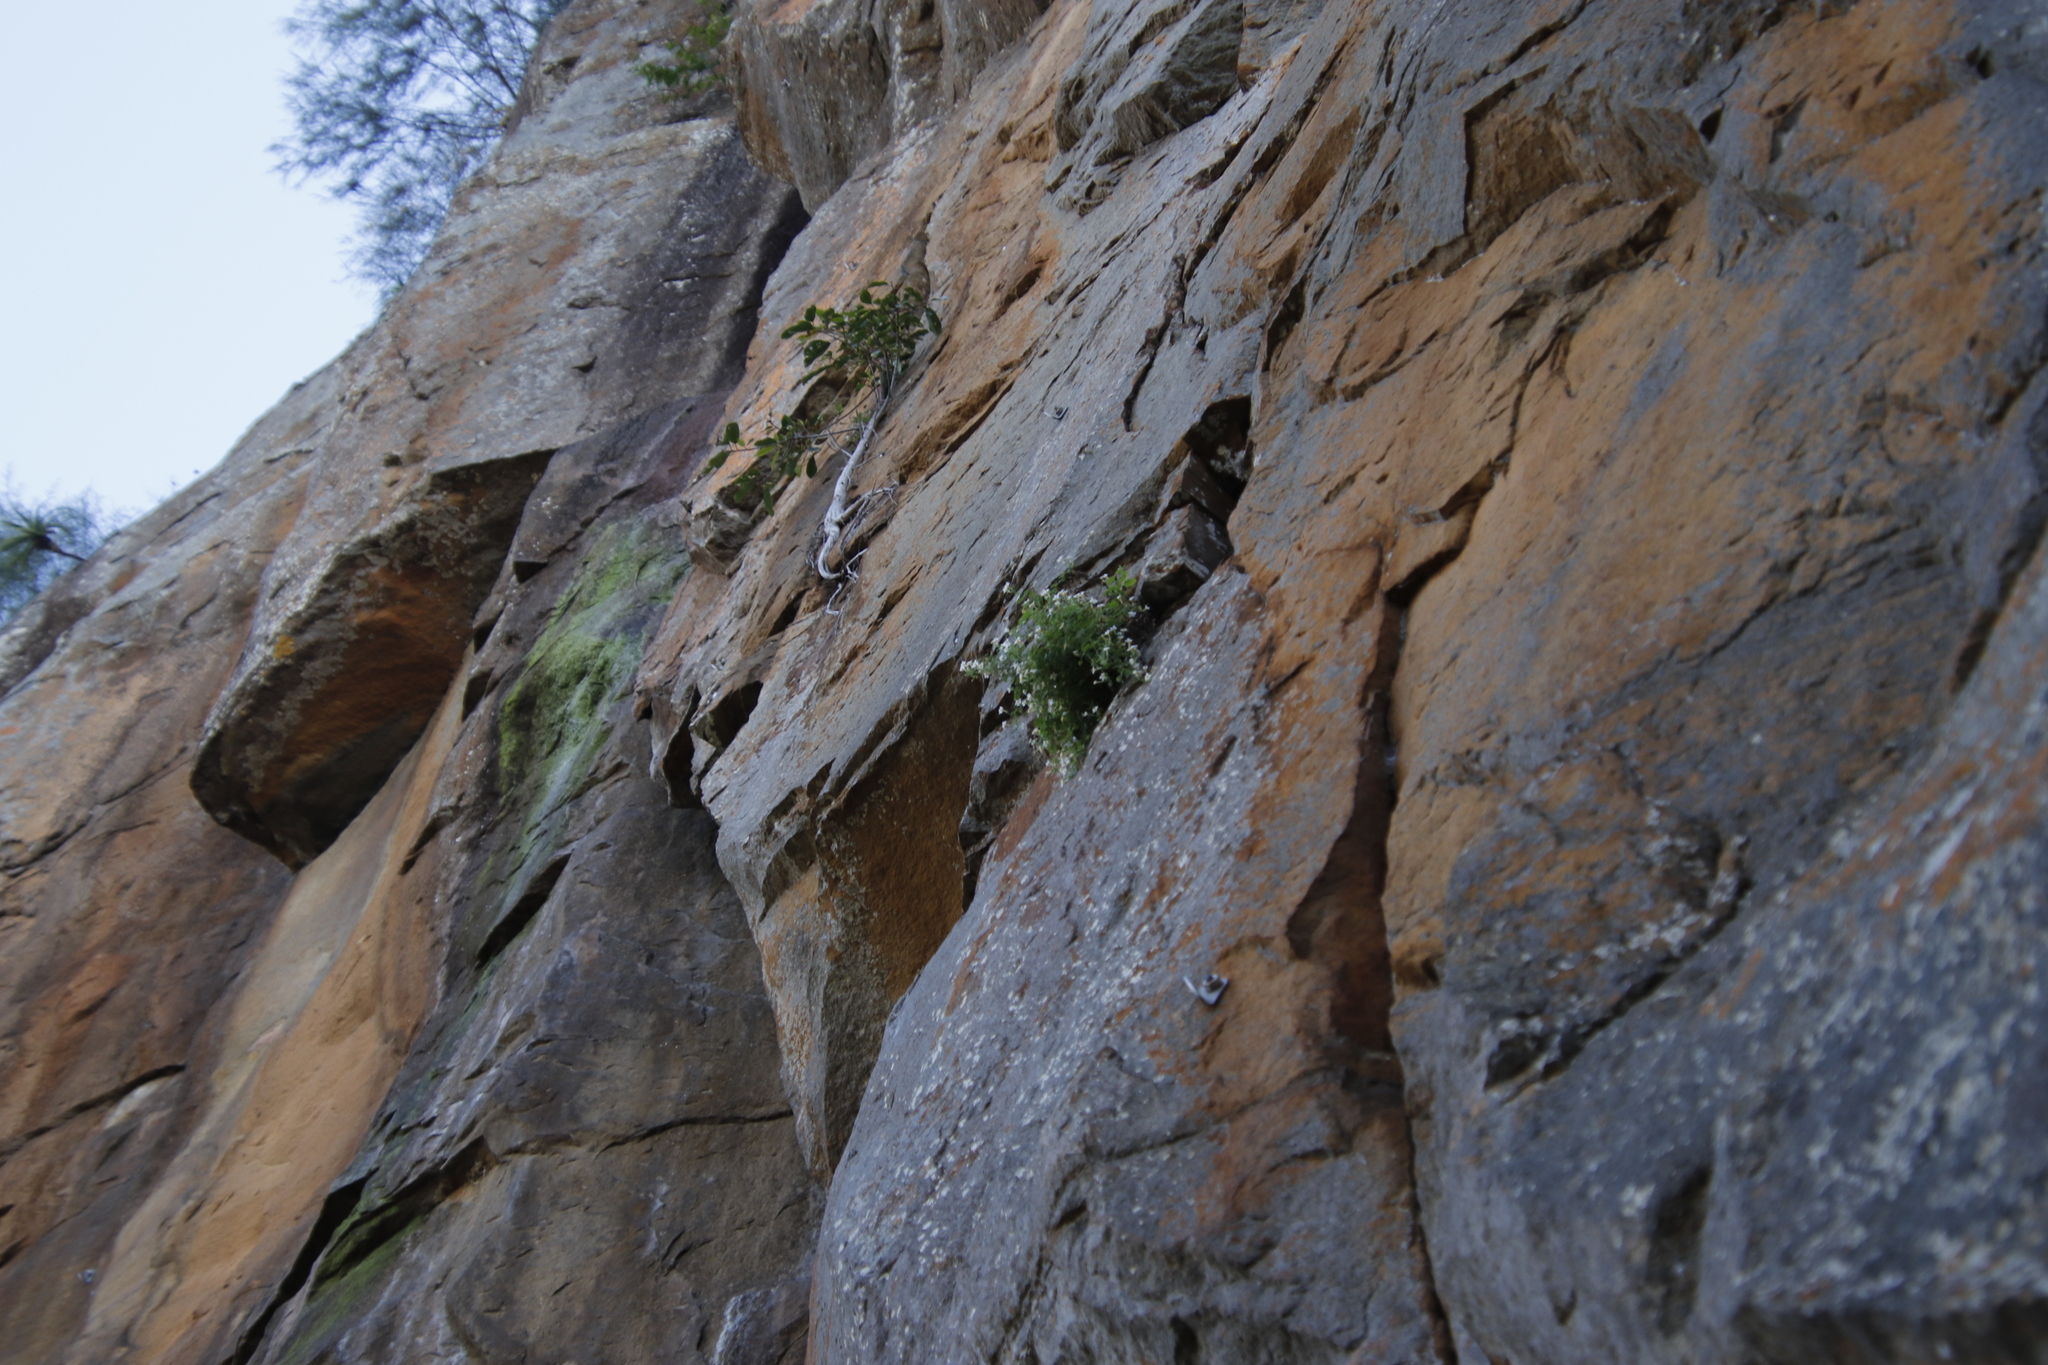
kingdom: Plantae
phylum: Tracheophyta
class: Magnoliopsida
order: Rosales
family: Moraceae
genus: Ficus
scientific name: Ficus thonningii
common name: Fig
